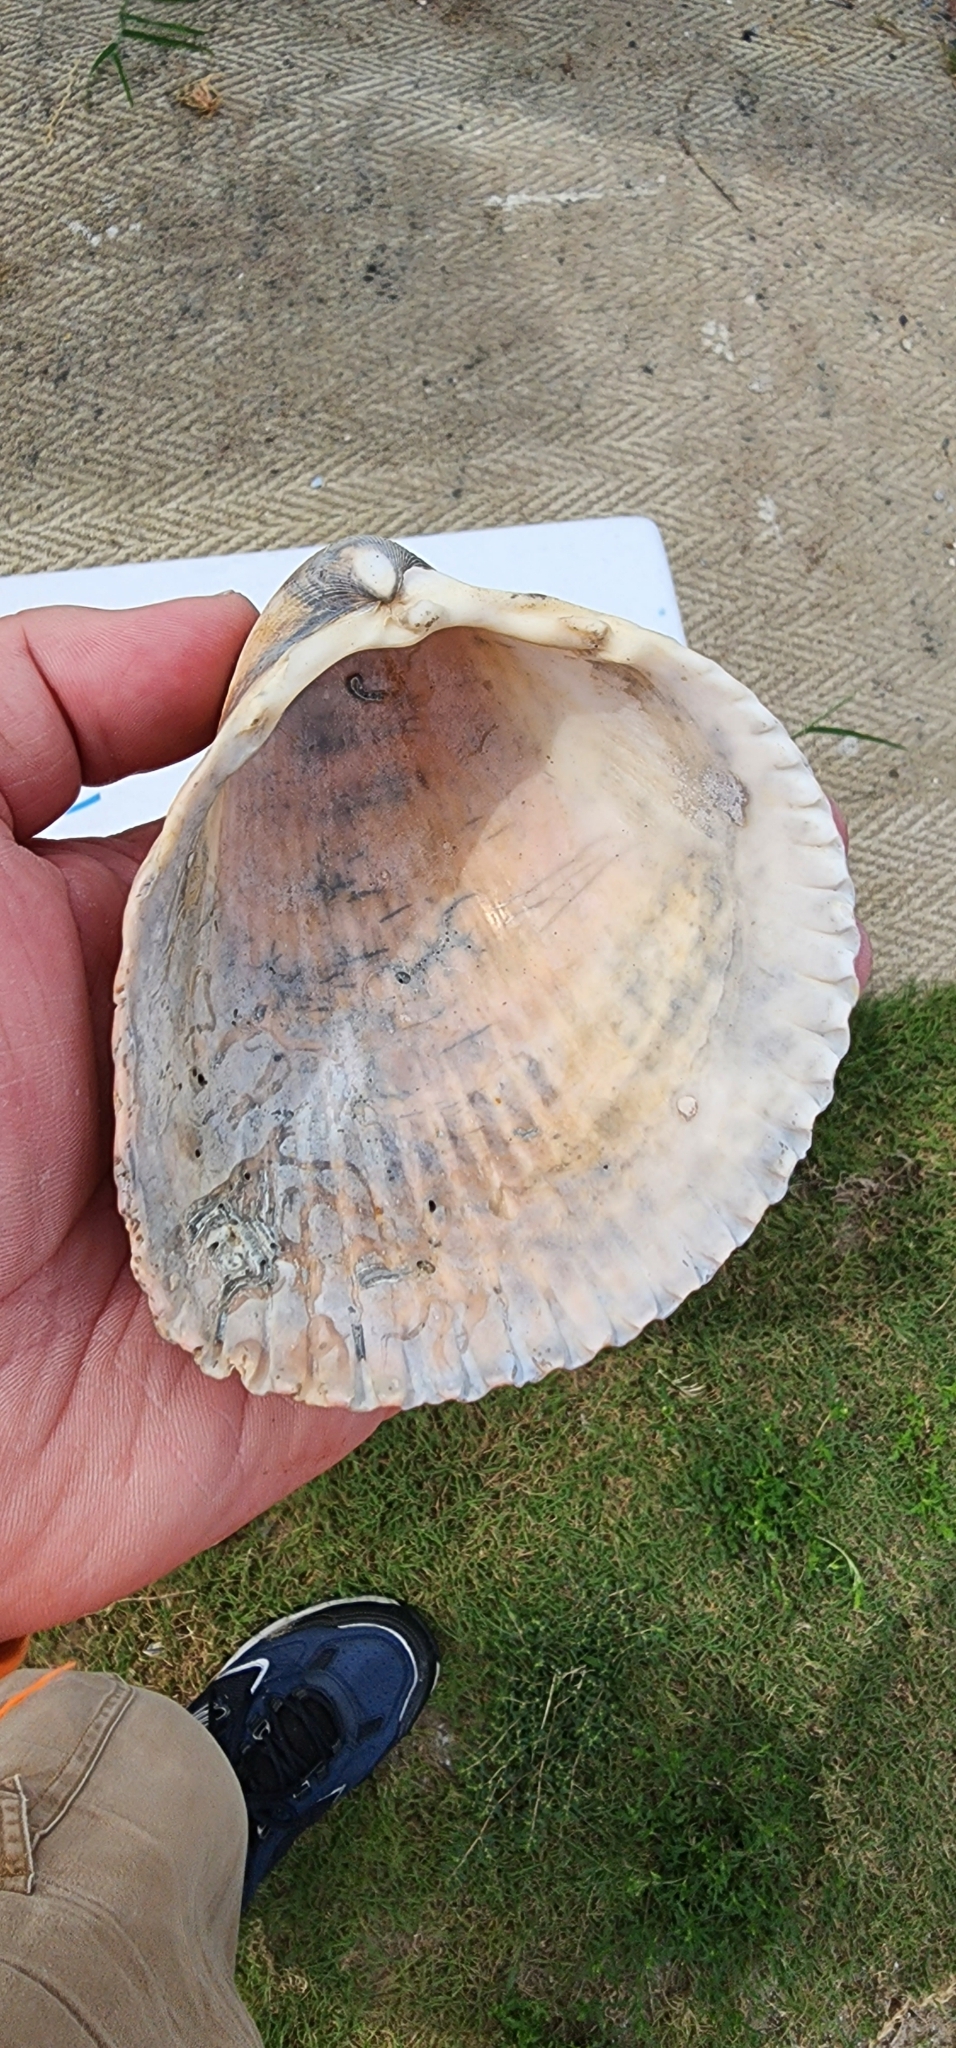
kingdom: Animalia
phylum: Mollusca
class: Bivalvia
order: Cardiida
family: Cardiidae
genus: Dinocardium
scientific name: Dinocardium robustum
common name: Atlantic giant cockle
